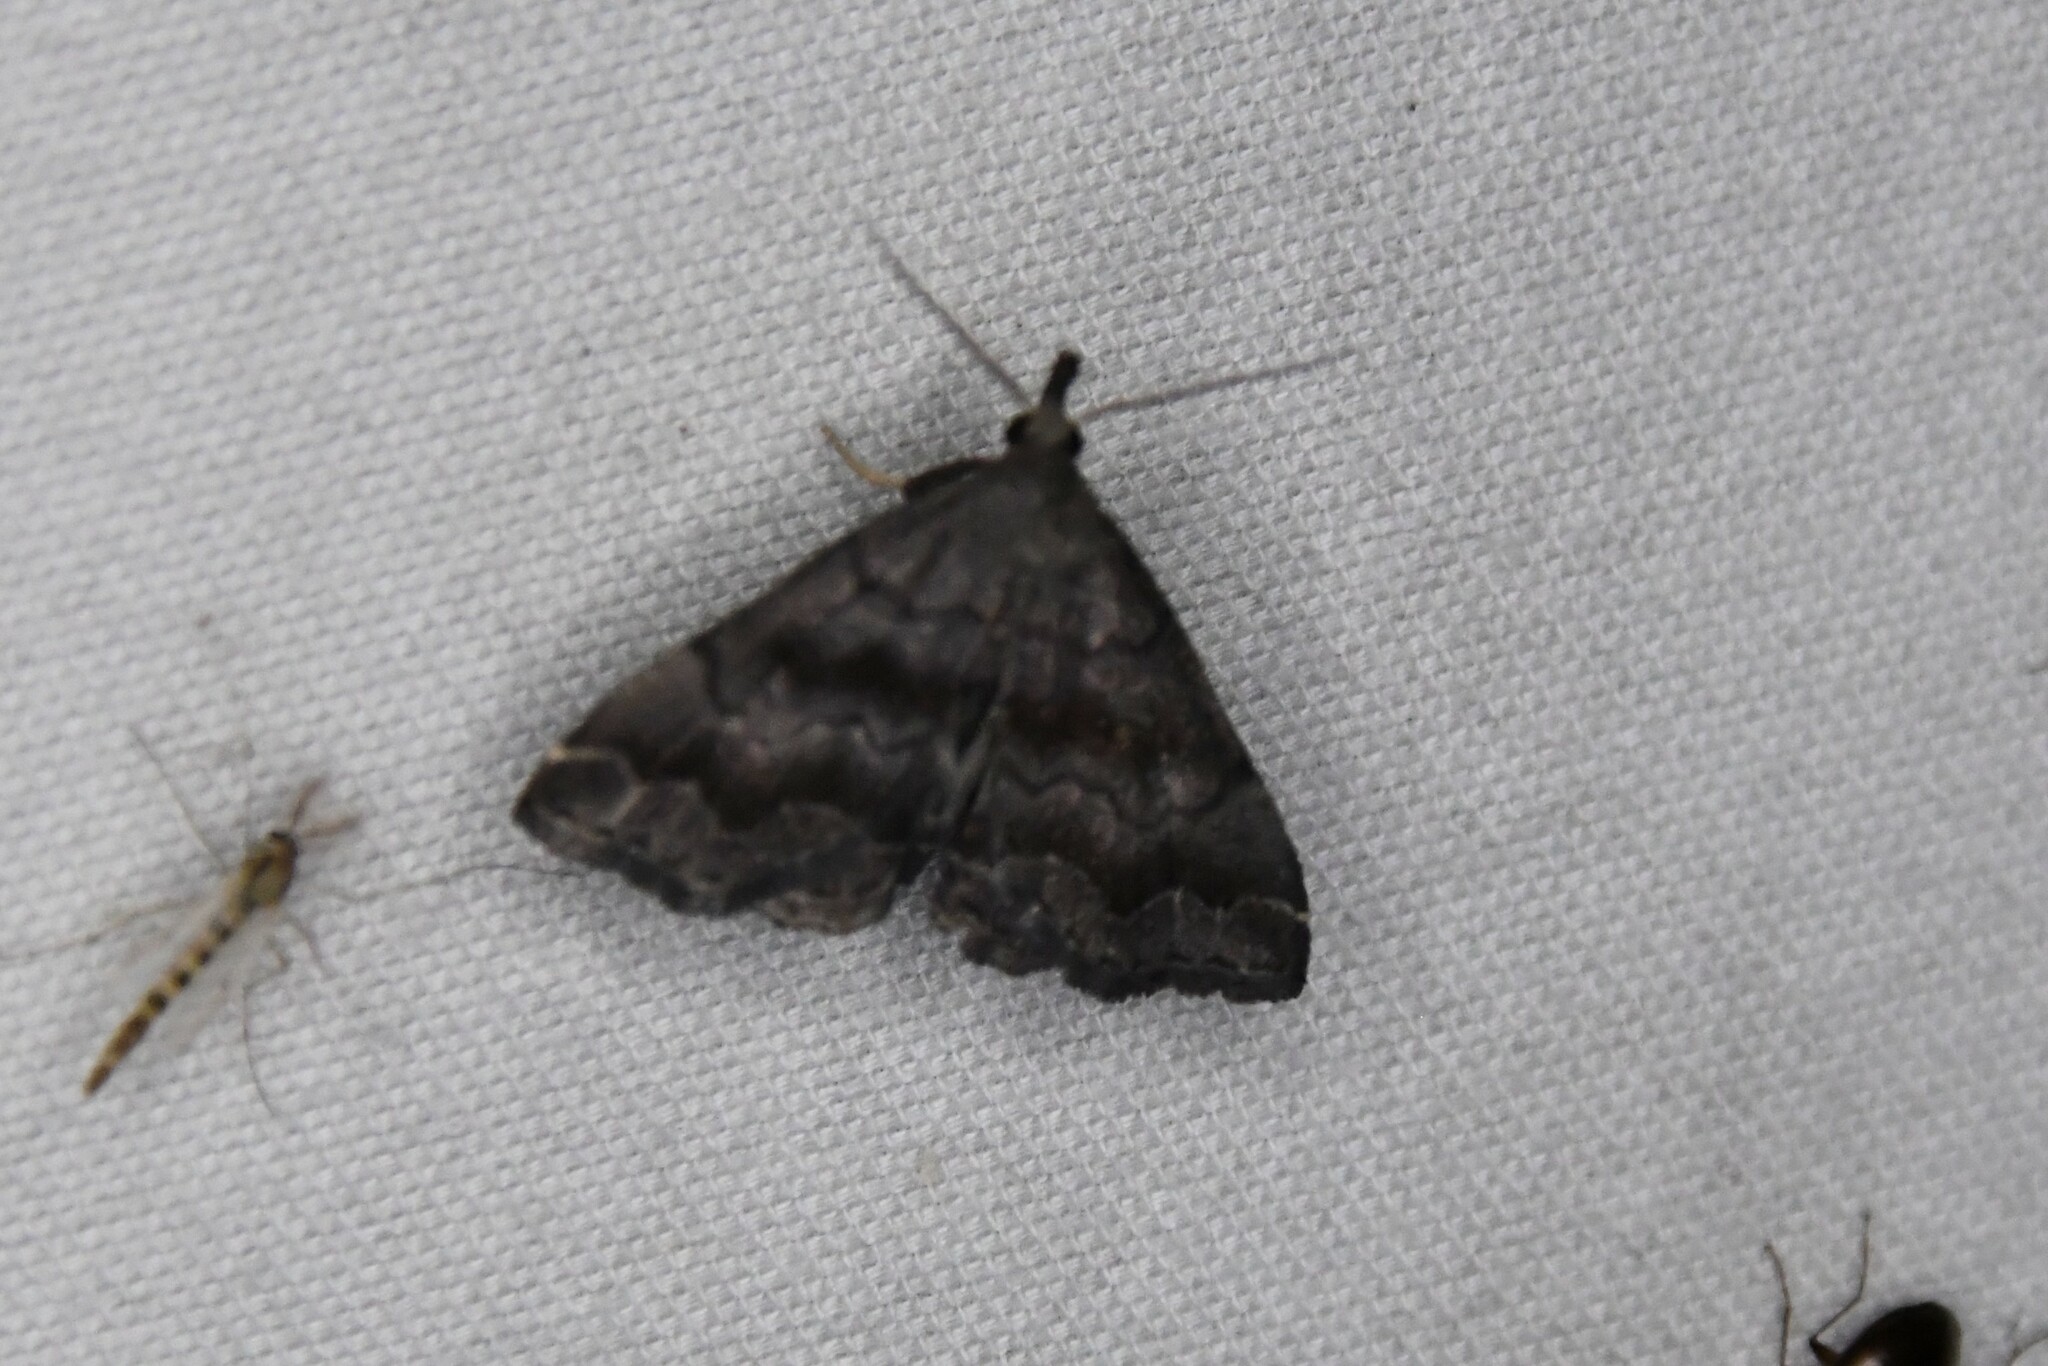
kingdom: Animalia
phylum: Arthropoda
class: Insecta
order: Lepidoptera
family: Erebidae
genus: Phalaenostola
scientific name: Phalaenostola larentioides
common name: Black-banded owlet
